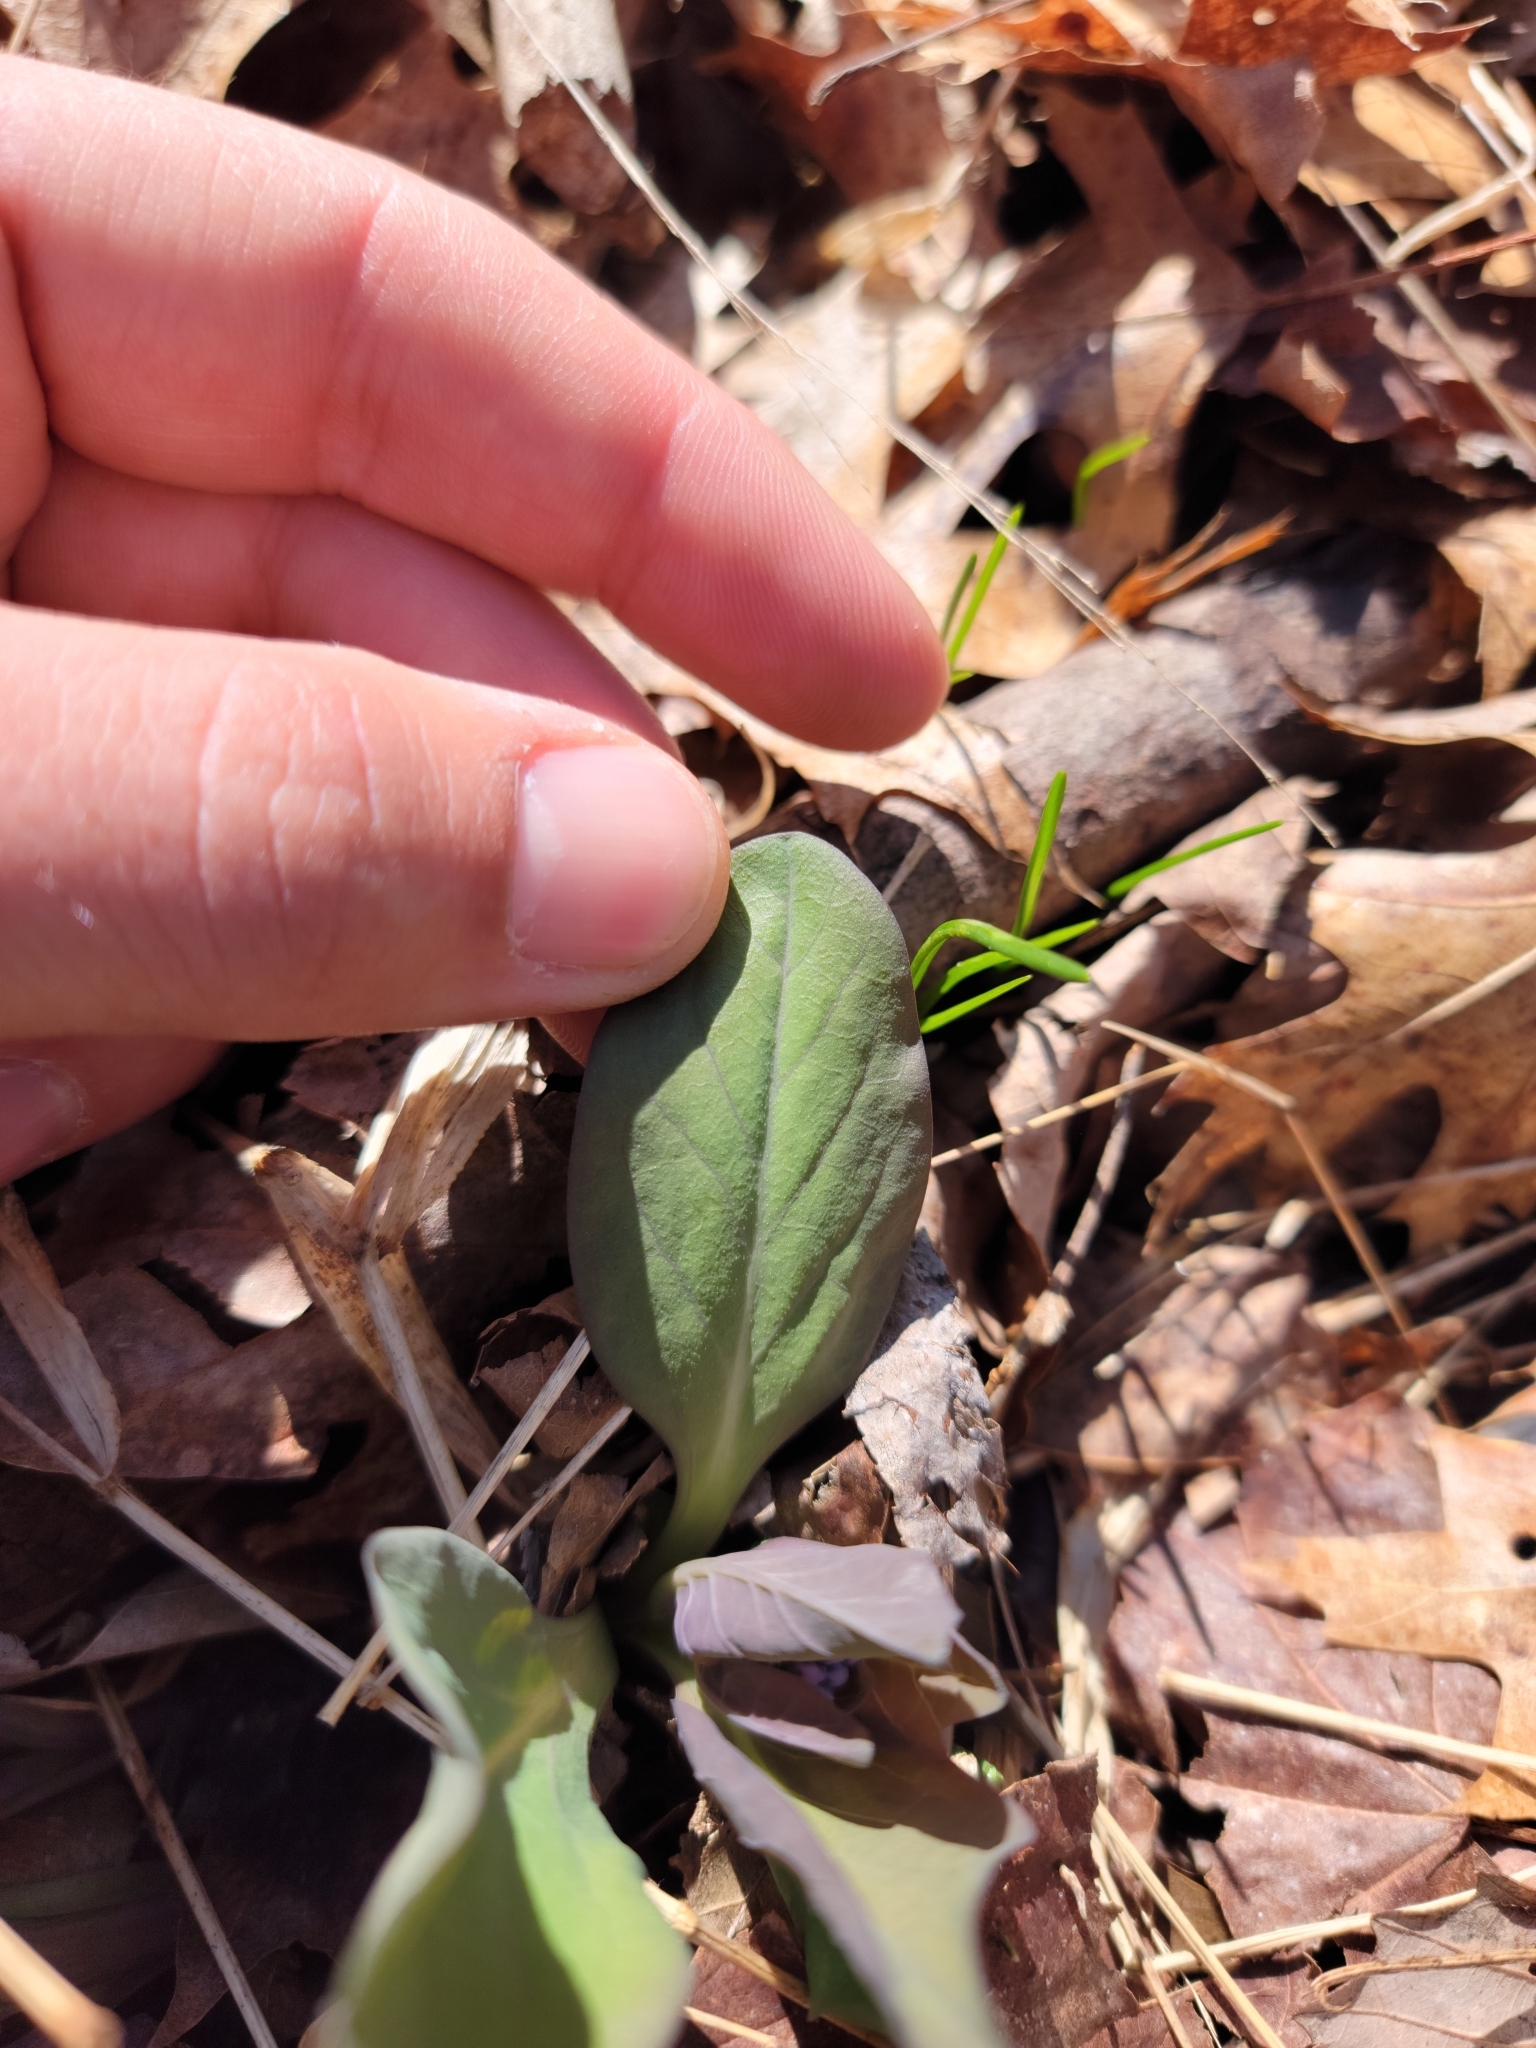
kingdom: Plantae
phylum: Tracheophyta
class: Magnoliopsida
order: Boraginales
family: Boraginaceae
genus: Mertensia
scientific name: Mertensia virginica
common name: Virginia bluebells
